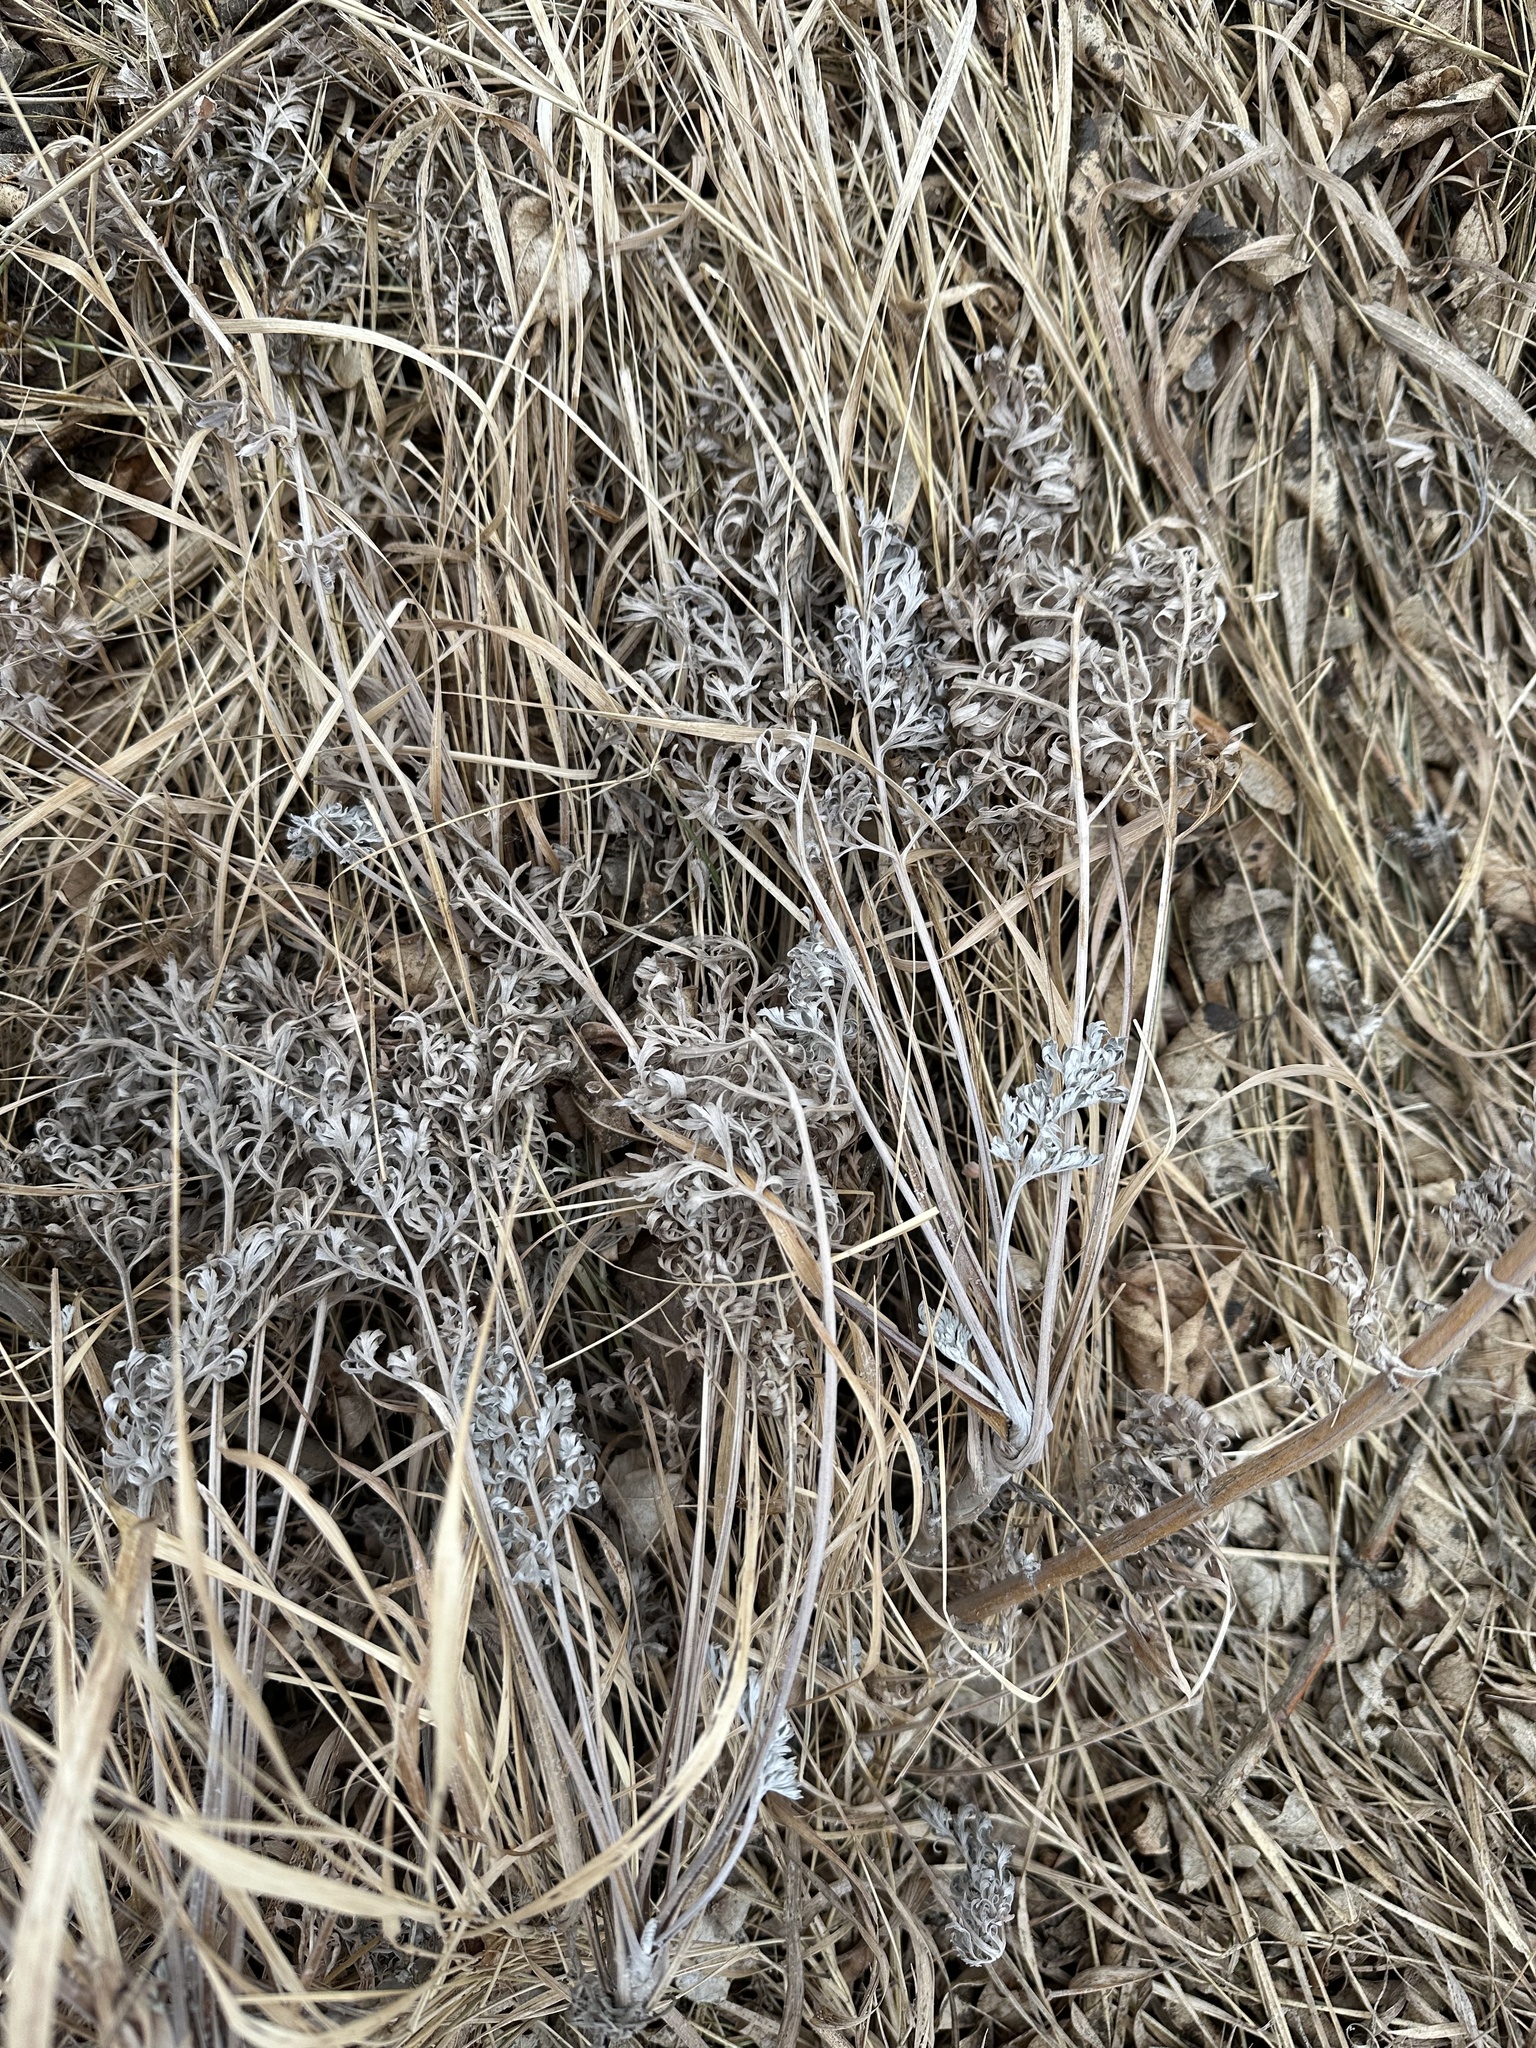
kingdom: Plantae
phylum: Tracheophyta
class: Magnoliopsida
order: Asterales
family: Asteraceae
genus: Artemisia
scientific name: Artemisia absinthium
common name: Wormwood
